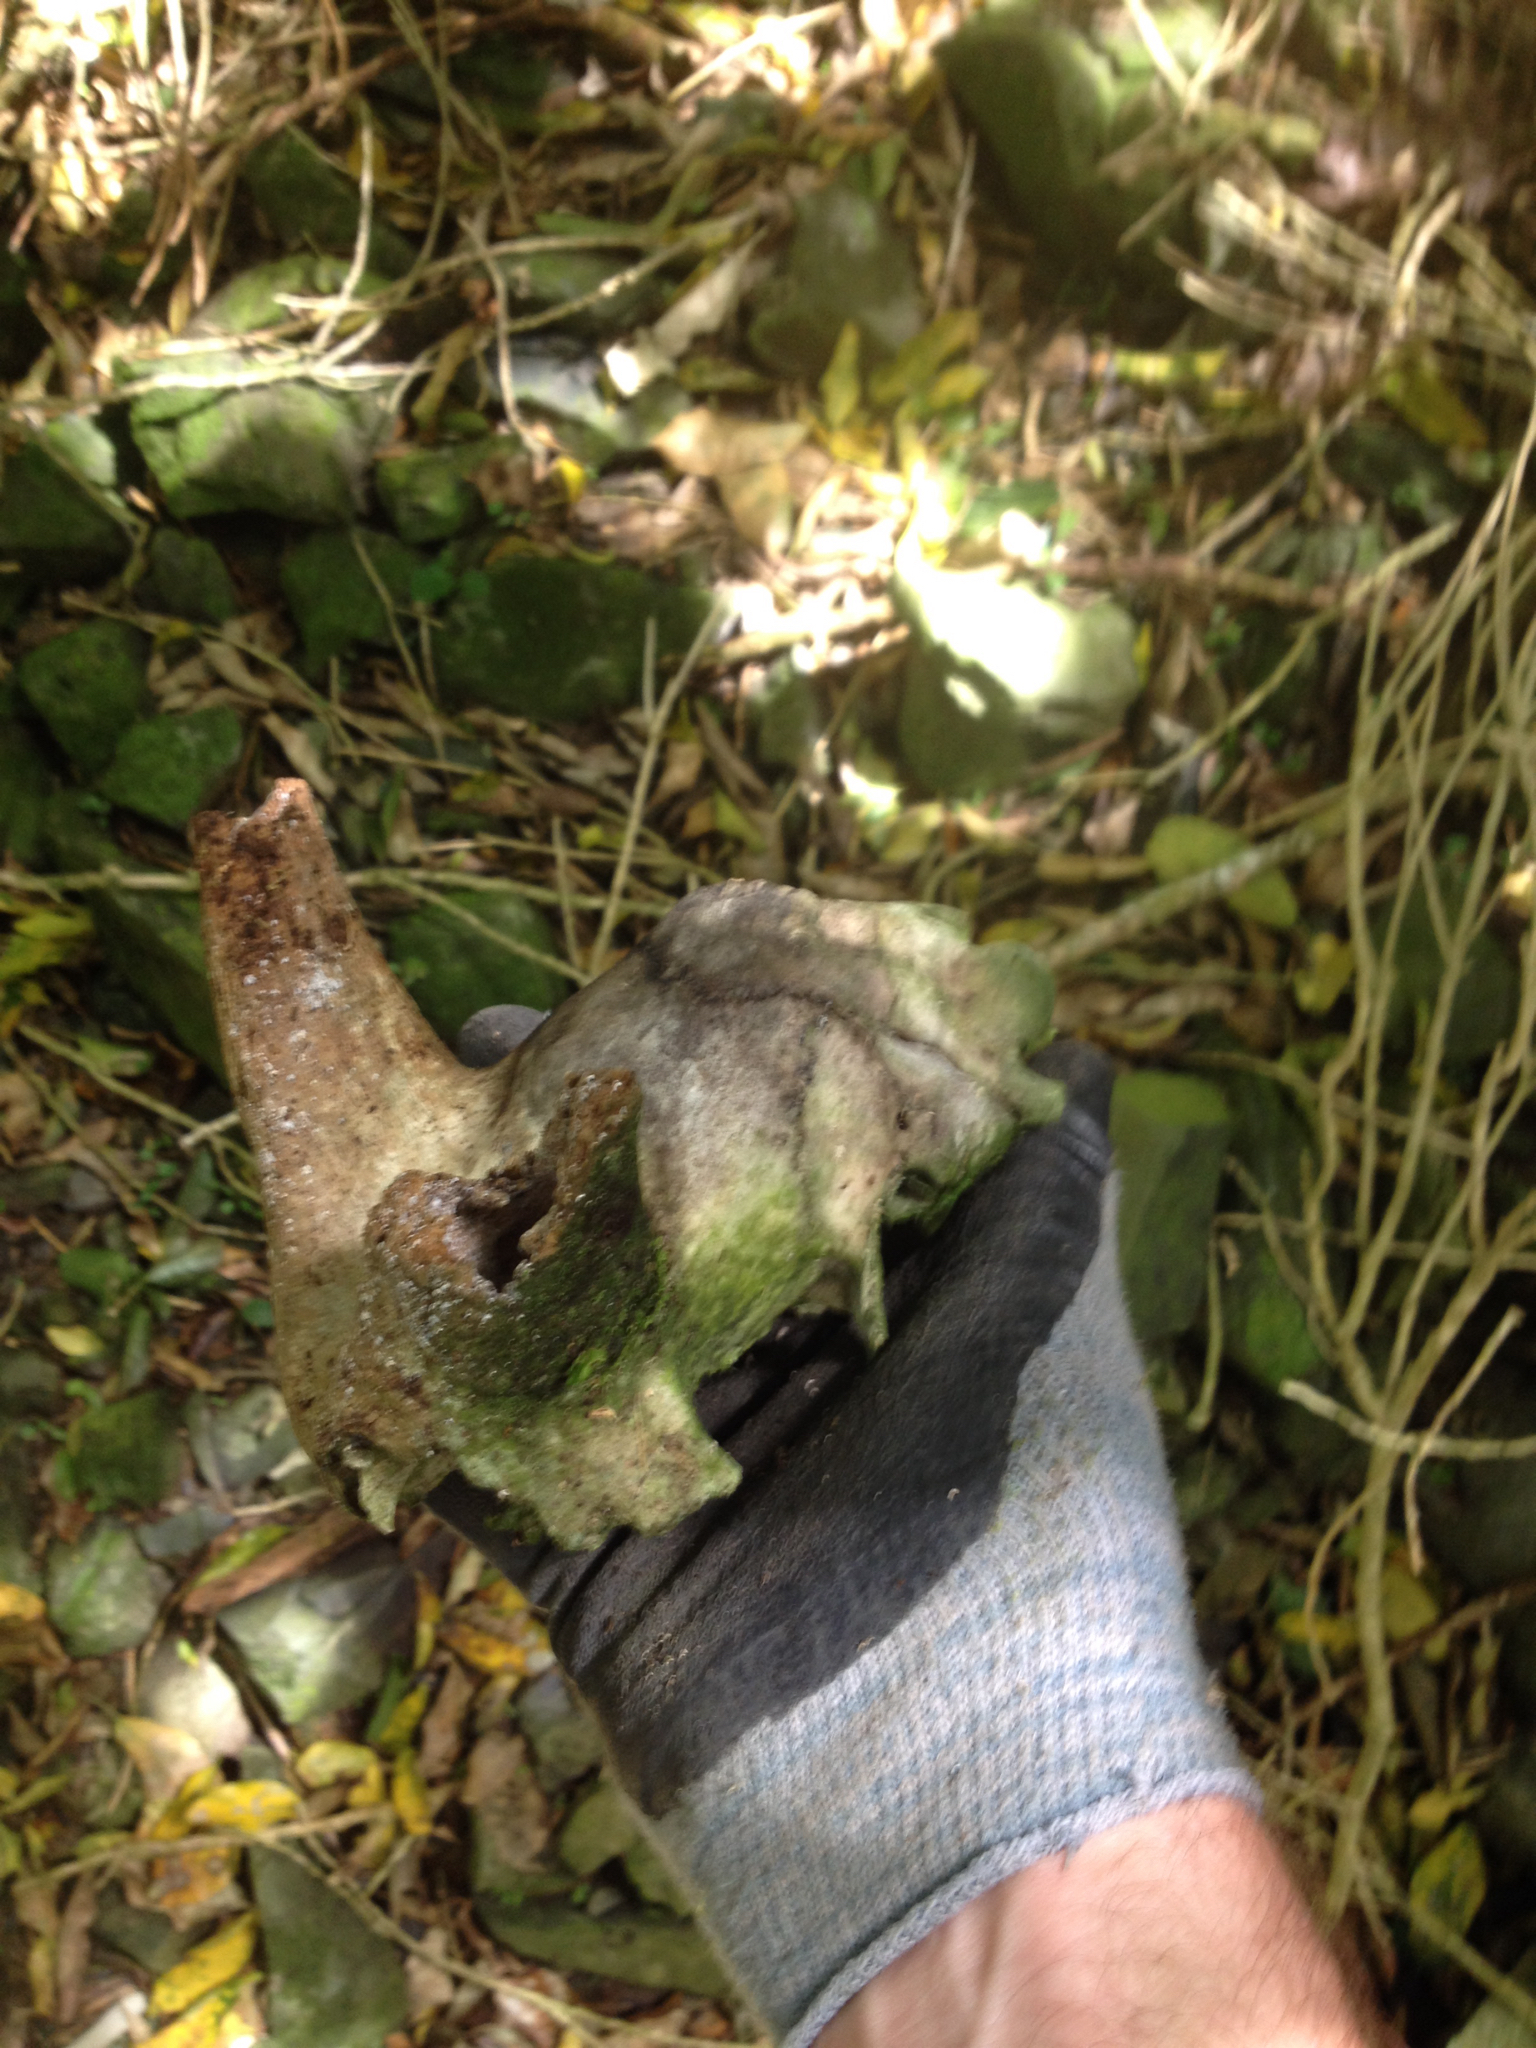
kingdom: Animalia
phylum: Chordata
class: Mammalia
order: Artiodactyla
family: Bovidae
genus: Capra
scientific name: Capra hircus
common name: Domestic goat
